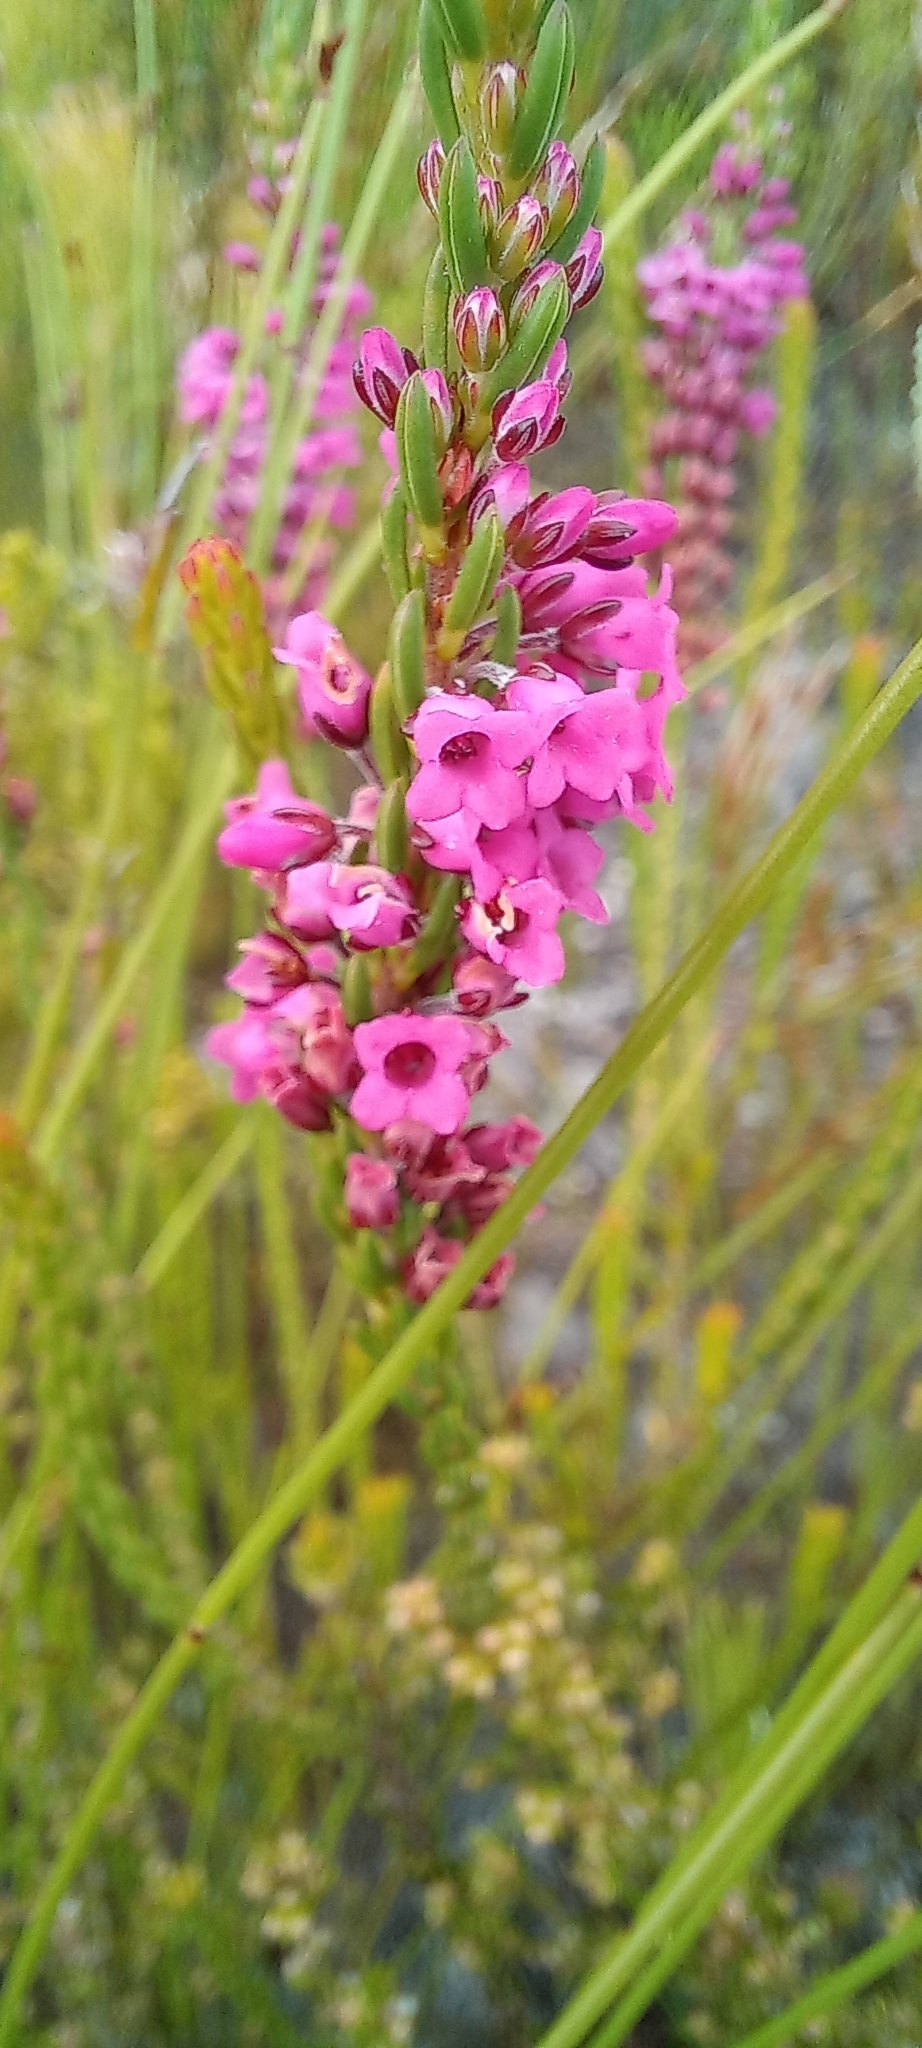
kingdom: Plantae
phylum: Tracheophyta
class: Magnoliopsida
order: Ericales
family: Ericaceae
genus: Erica
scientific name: Erica pulchella
